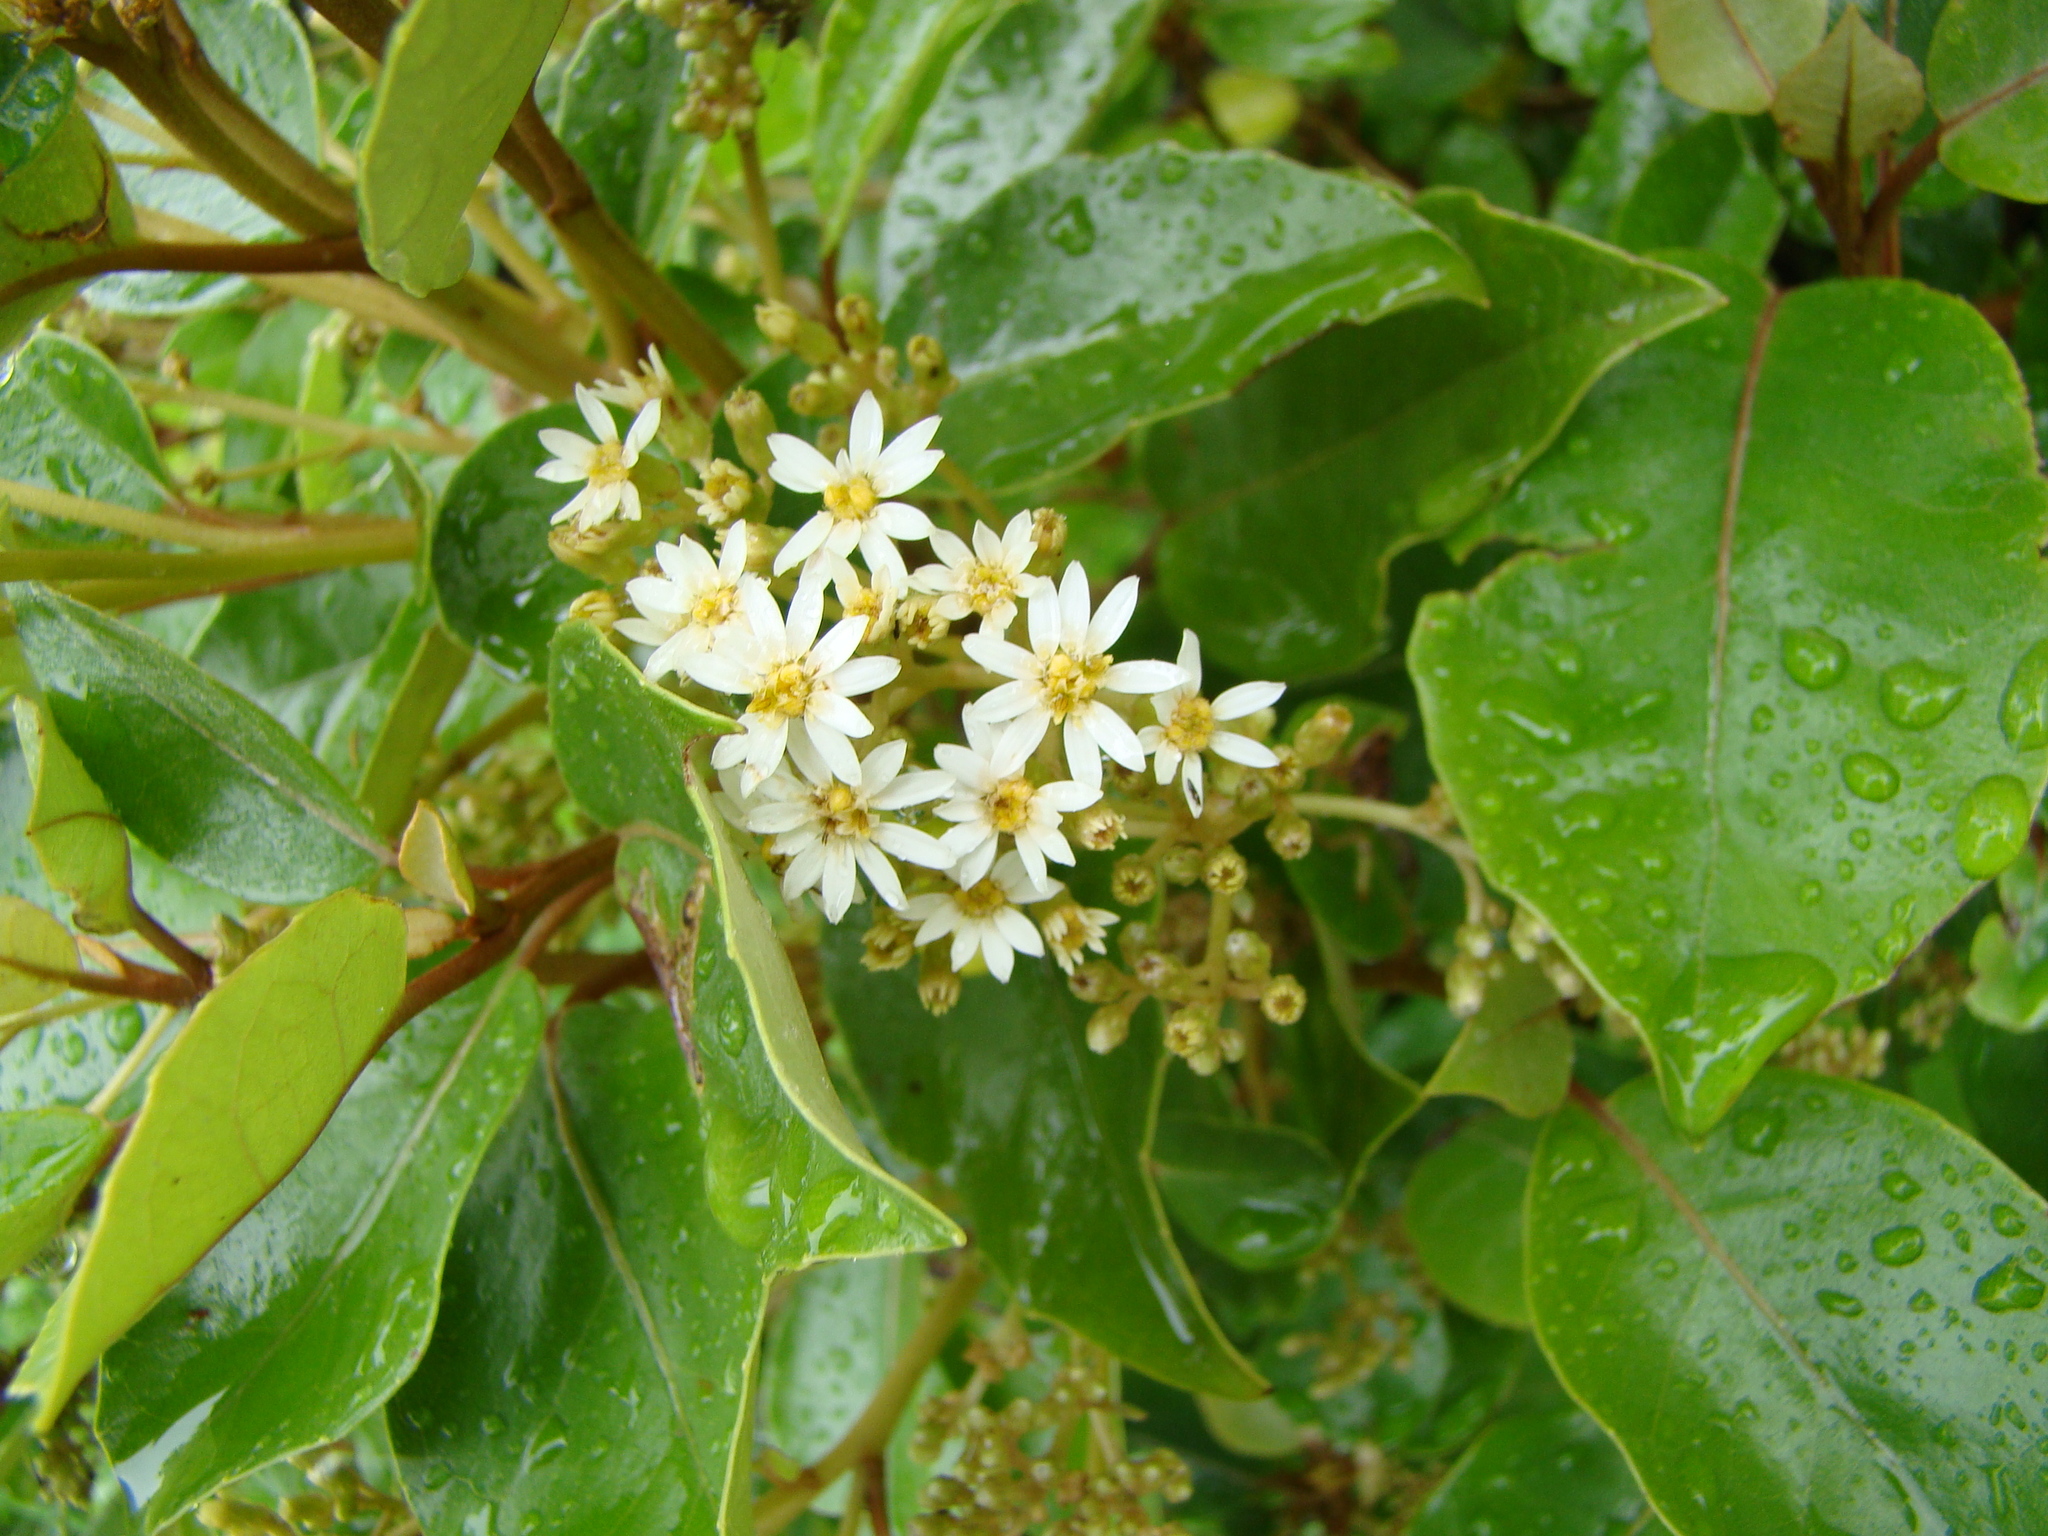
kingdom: Plantae
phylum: Tracheophyta
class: Magnoliopsida
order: Asterales
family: Asteraceae
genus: Olearia
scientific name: Olearia arborescens
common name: Glossy tree daisy
